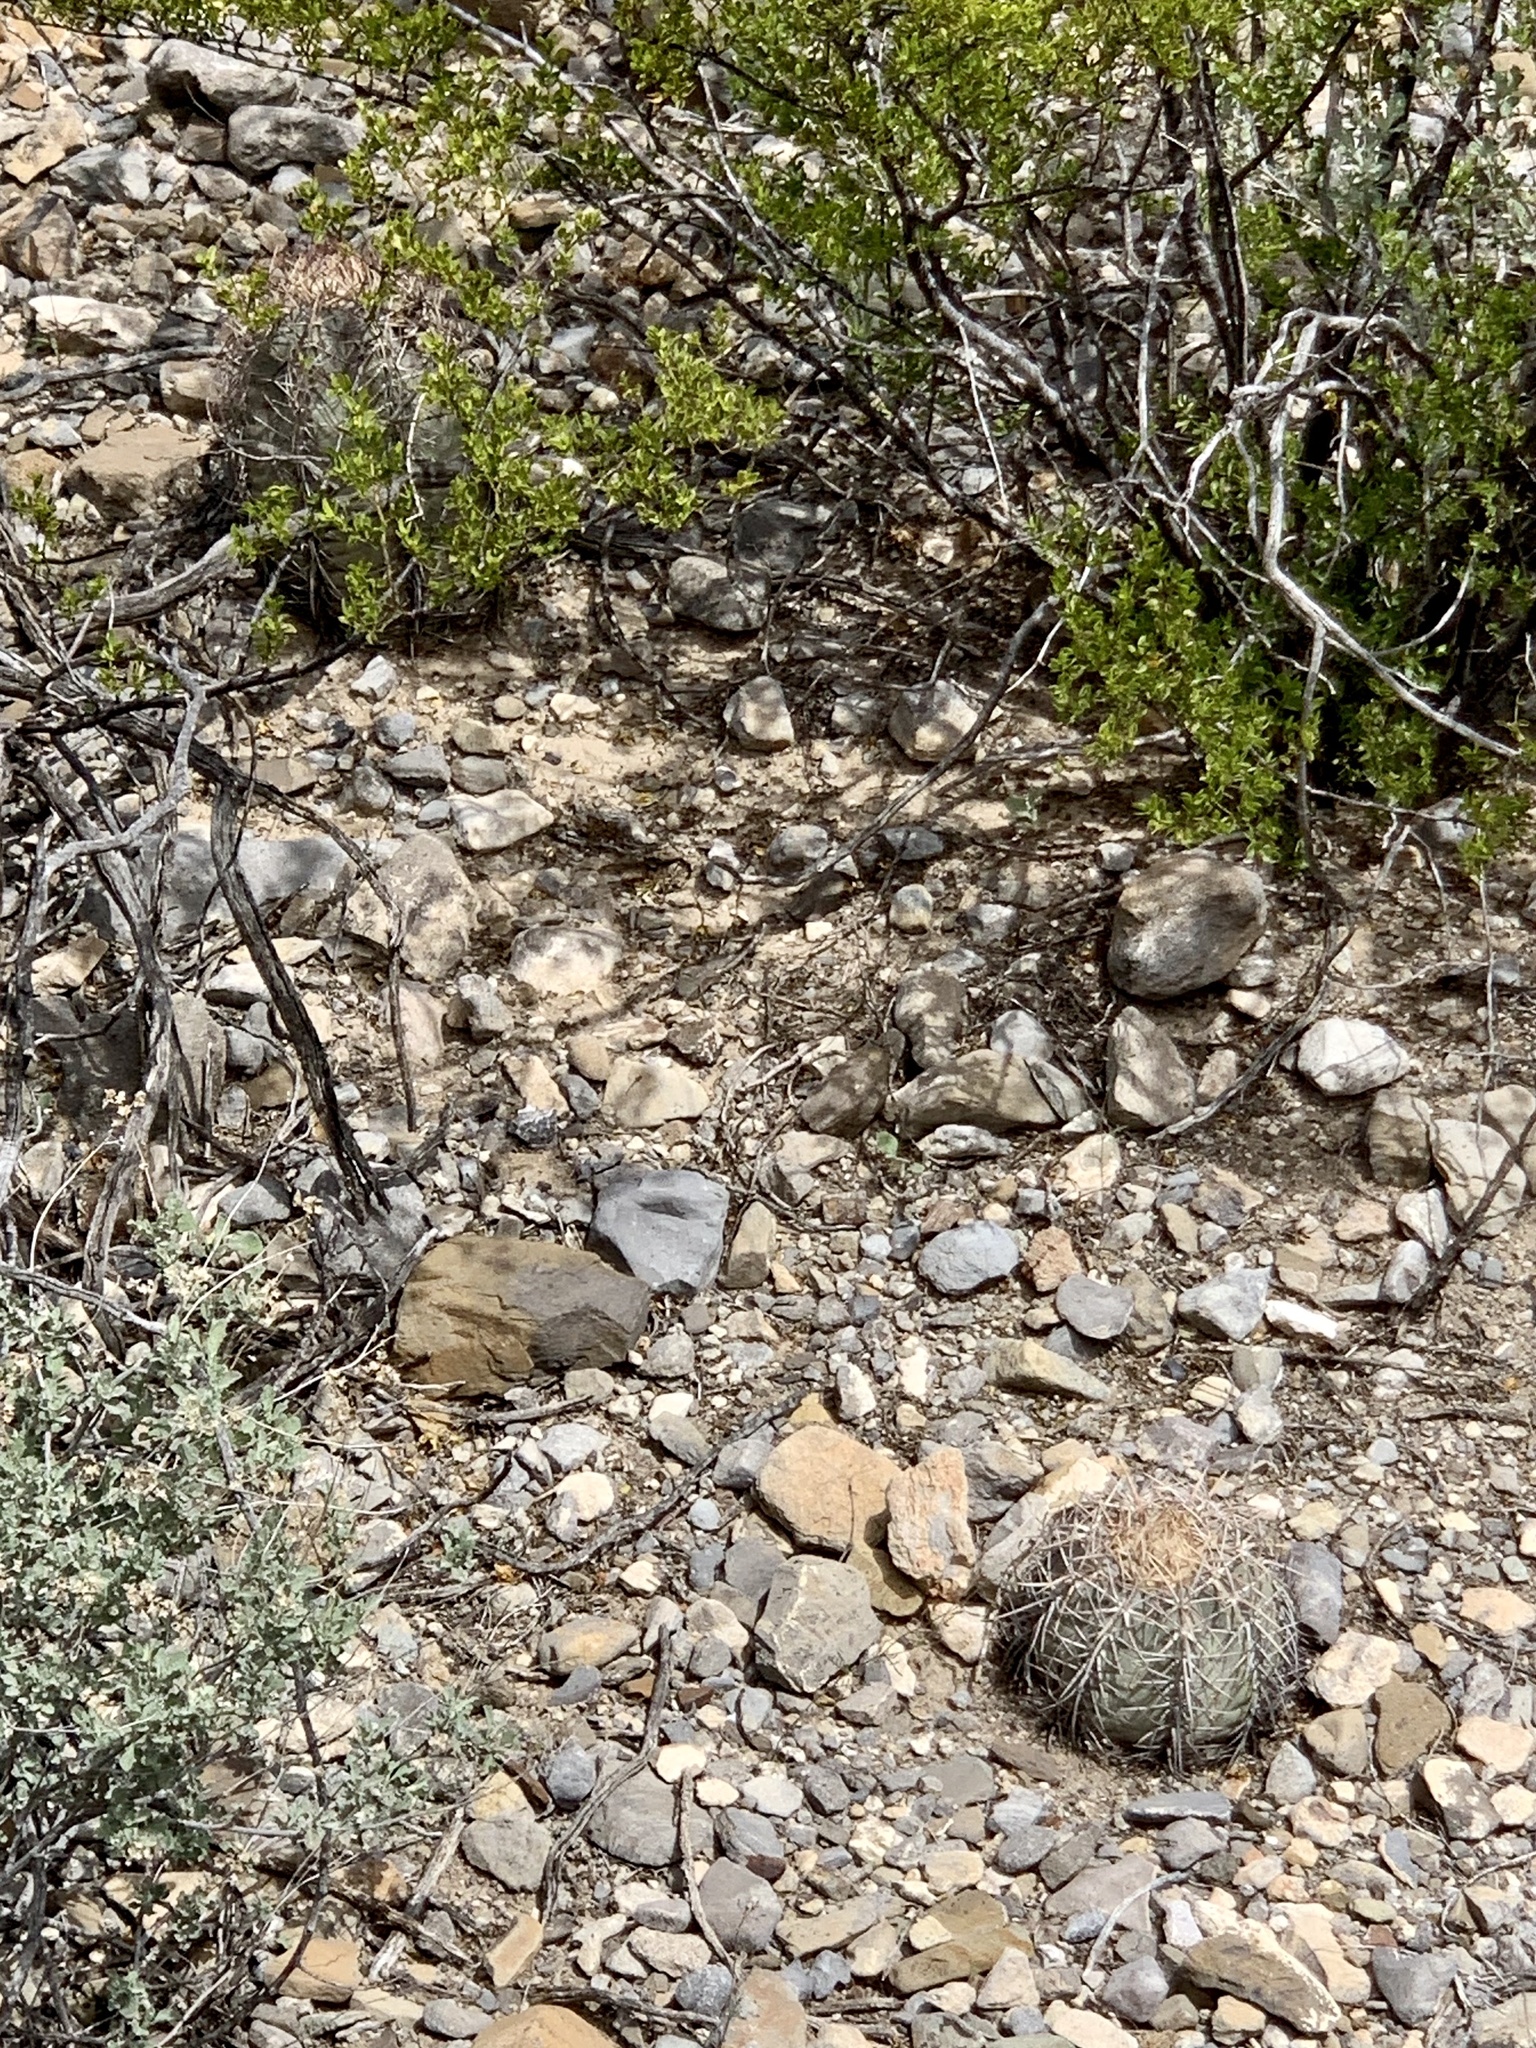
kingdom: Plantae
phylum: Tracheophyta
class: Magnoliopsida
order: Caryophyllales
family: Cactaceae
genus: Echinocactus
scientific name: Echinocactus horizonthalonius
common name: Devilshead
